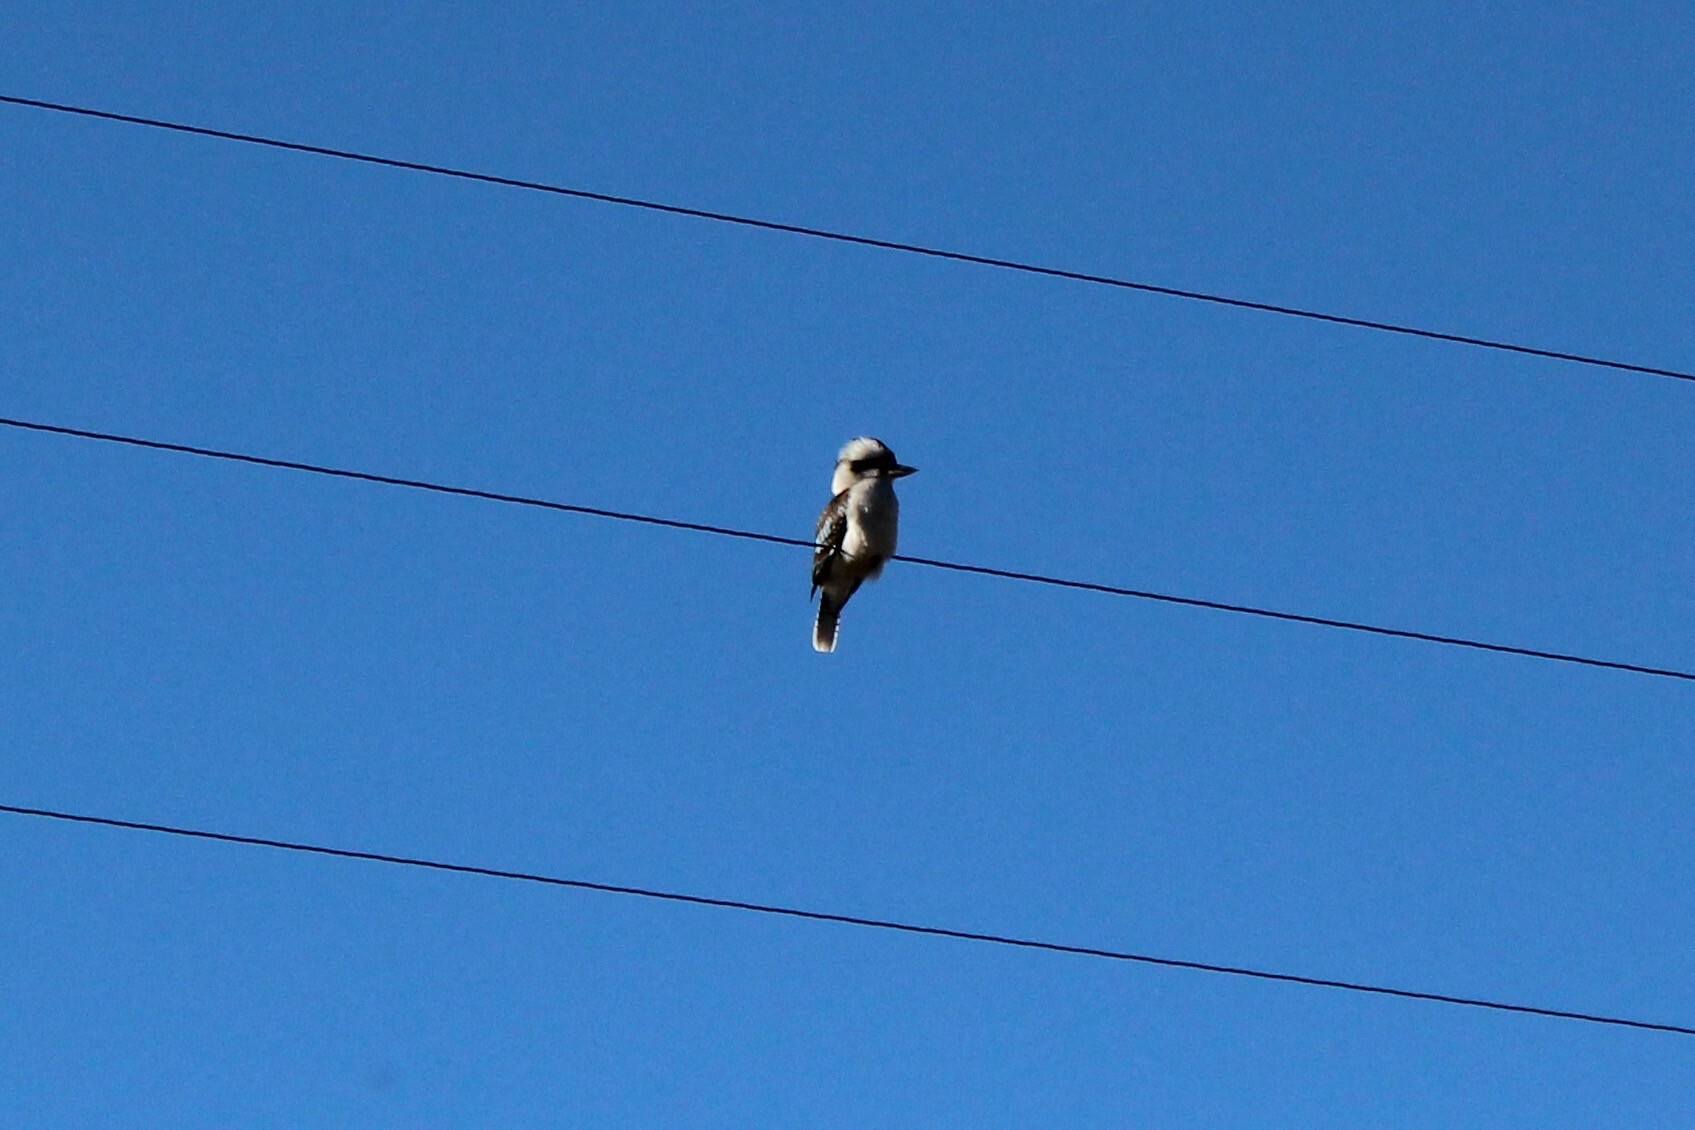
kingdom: Animalia
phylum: Chordata
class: Aves
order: Coraciiformes
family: Alcedinidae
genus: Dacelo
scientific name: Dacelo novaeguineae
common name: Laughing kookaburra
